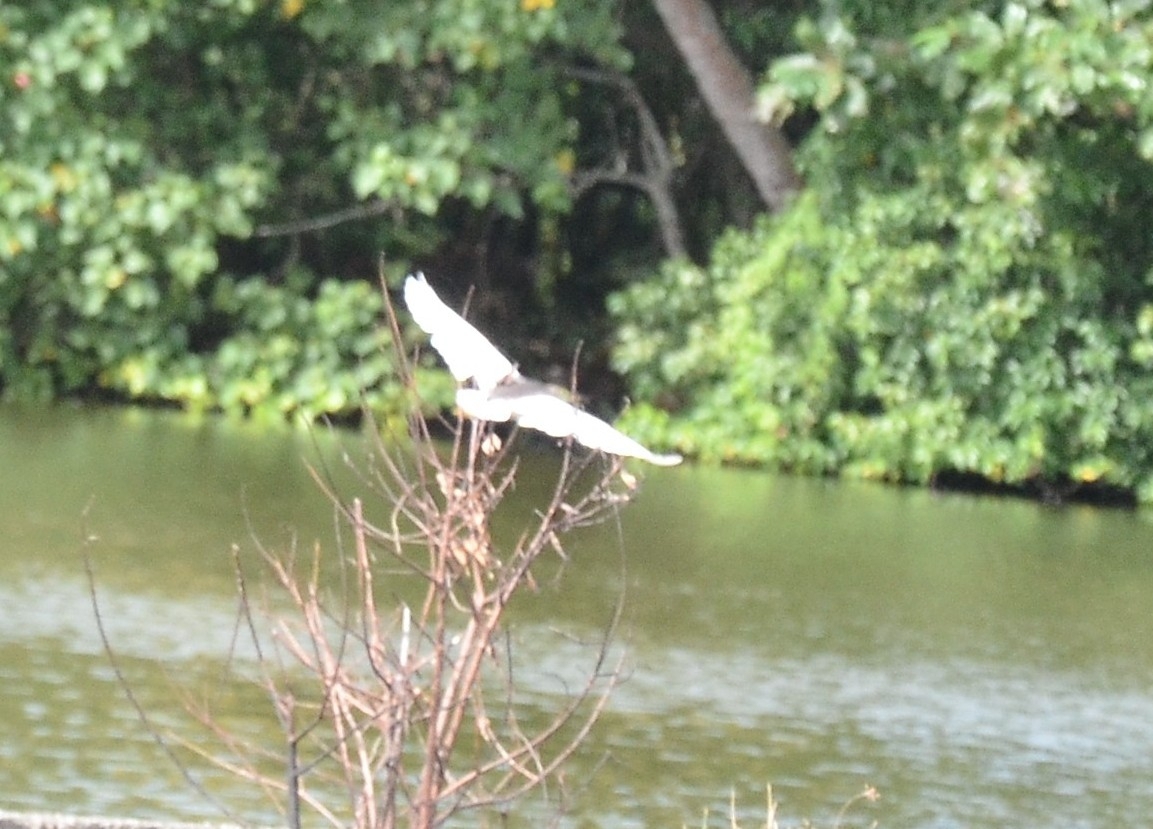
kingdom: Animalia
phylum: Chordata
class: Aves
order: Pelecaniformes
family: Ardeidae
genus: Ardeola
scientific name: Ardeola grayii
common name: Indian pond heron
